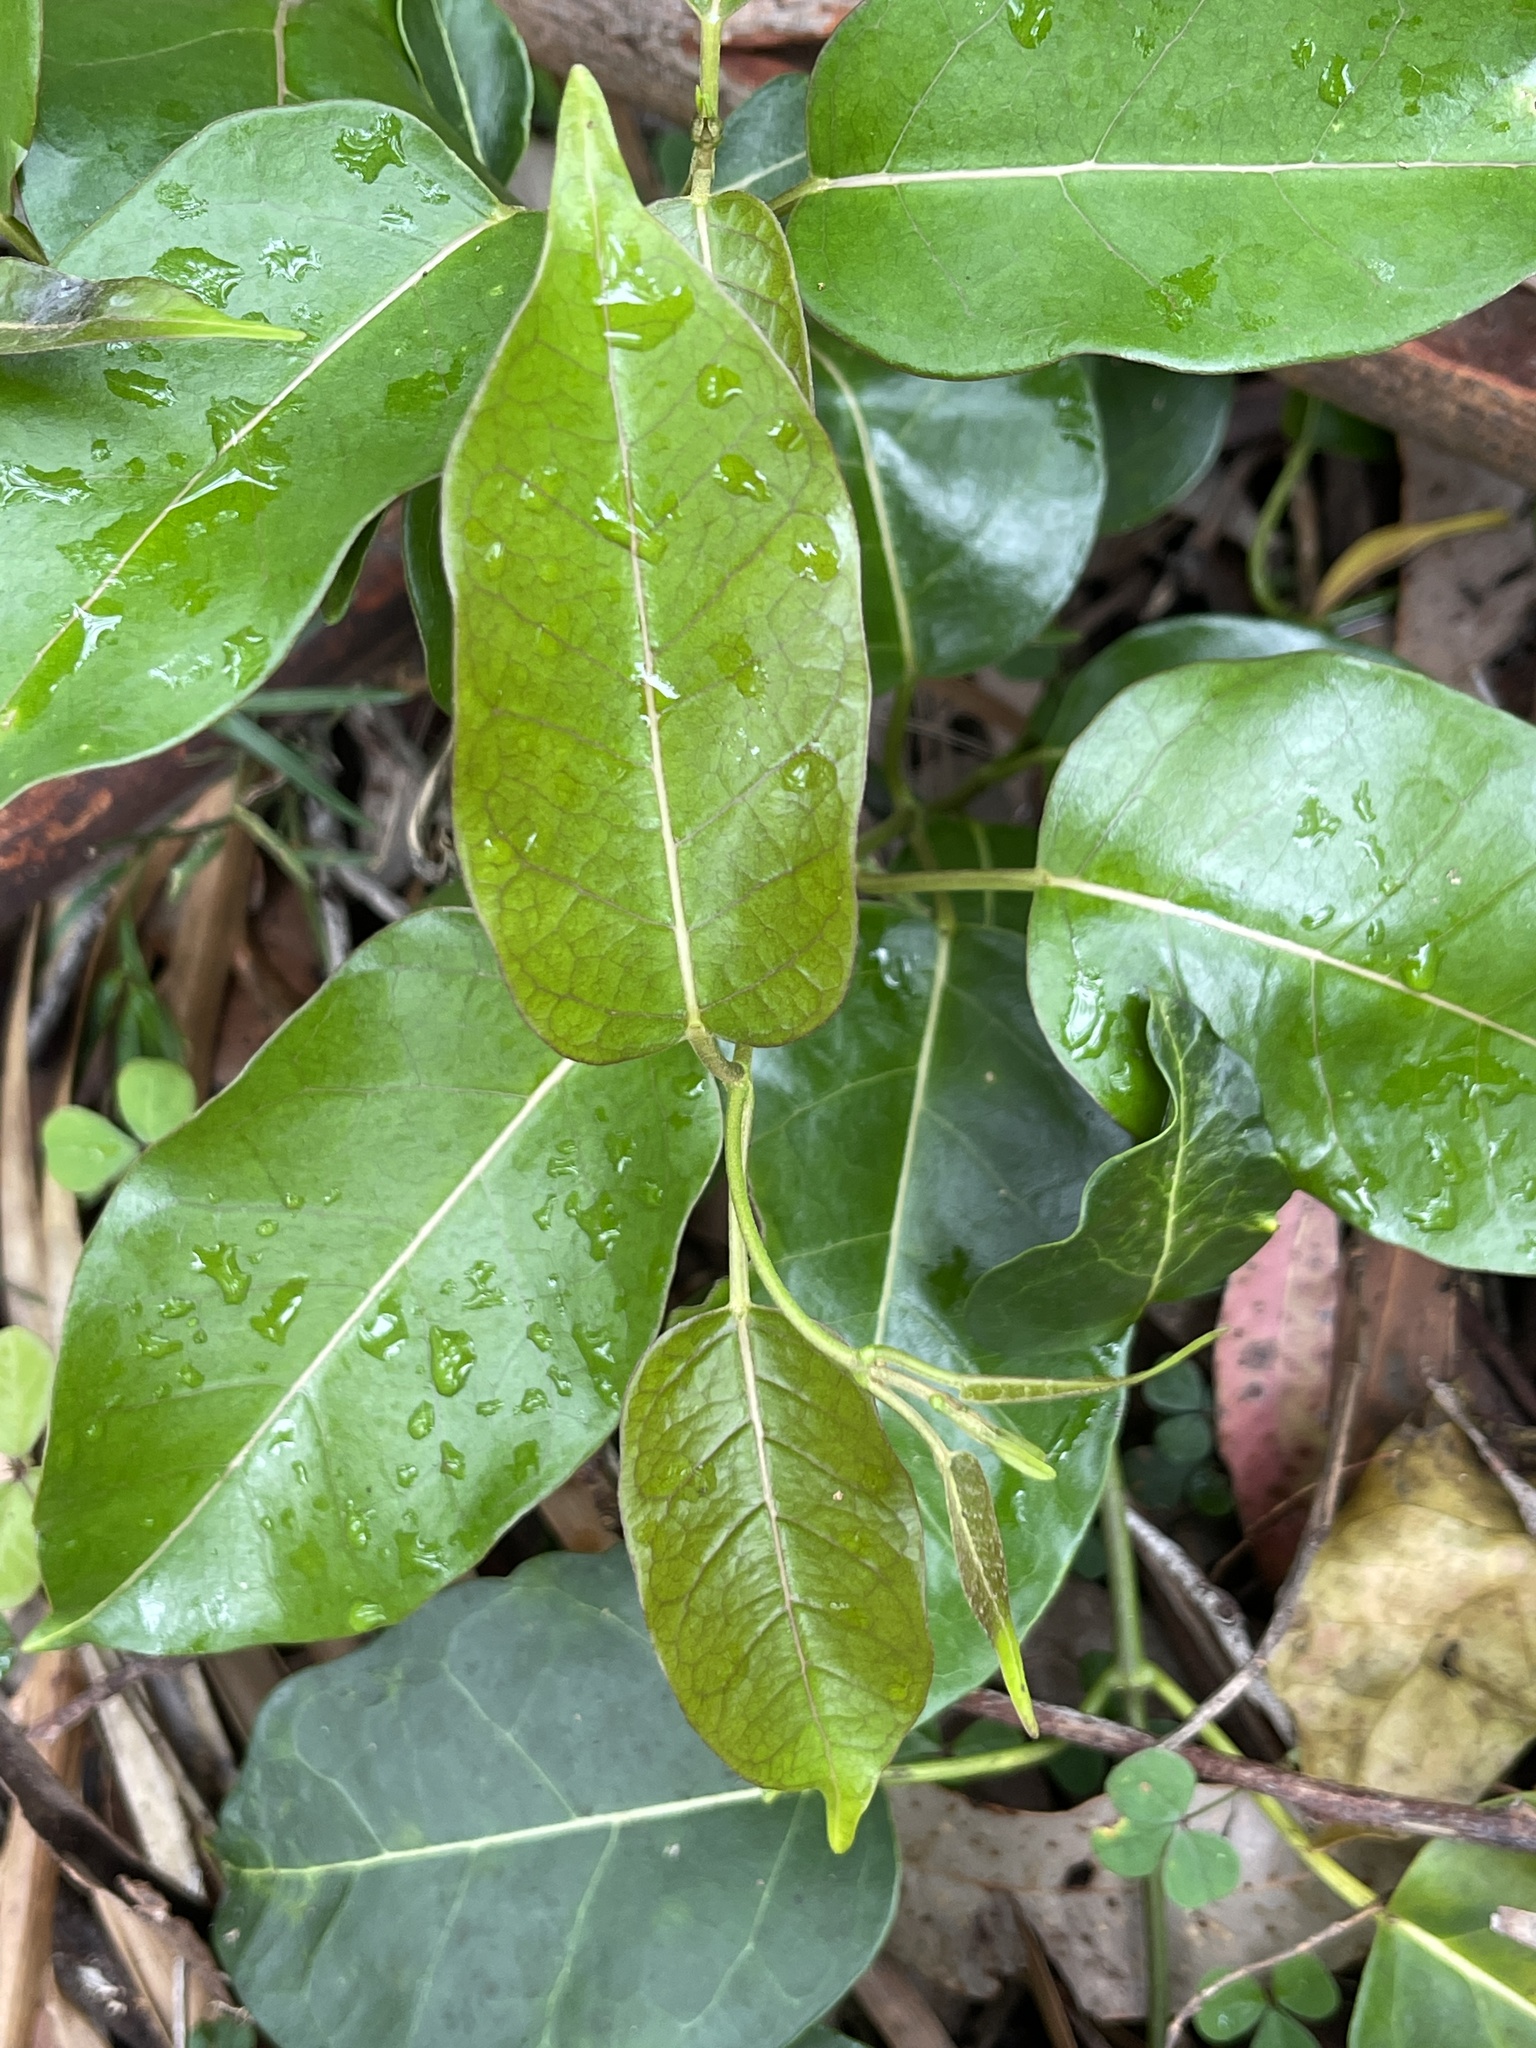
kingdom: Plantae
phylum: Tracheophyta
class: Magnoliopsida
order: Gentianales
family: Apocynaceae
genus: Leichhardtia
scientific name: Leichhardtia rostrata
